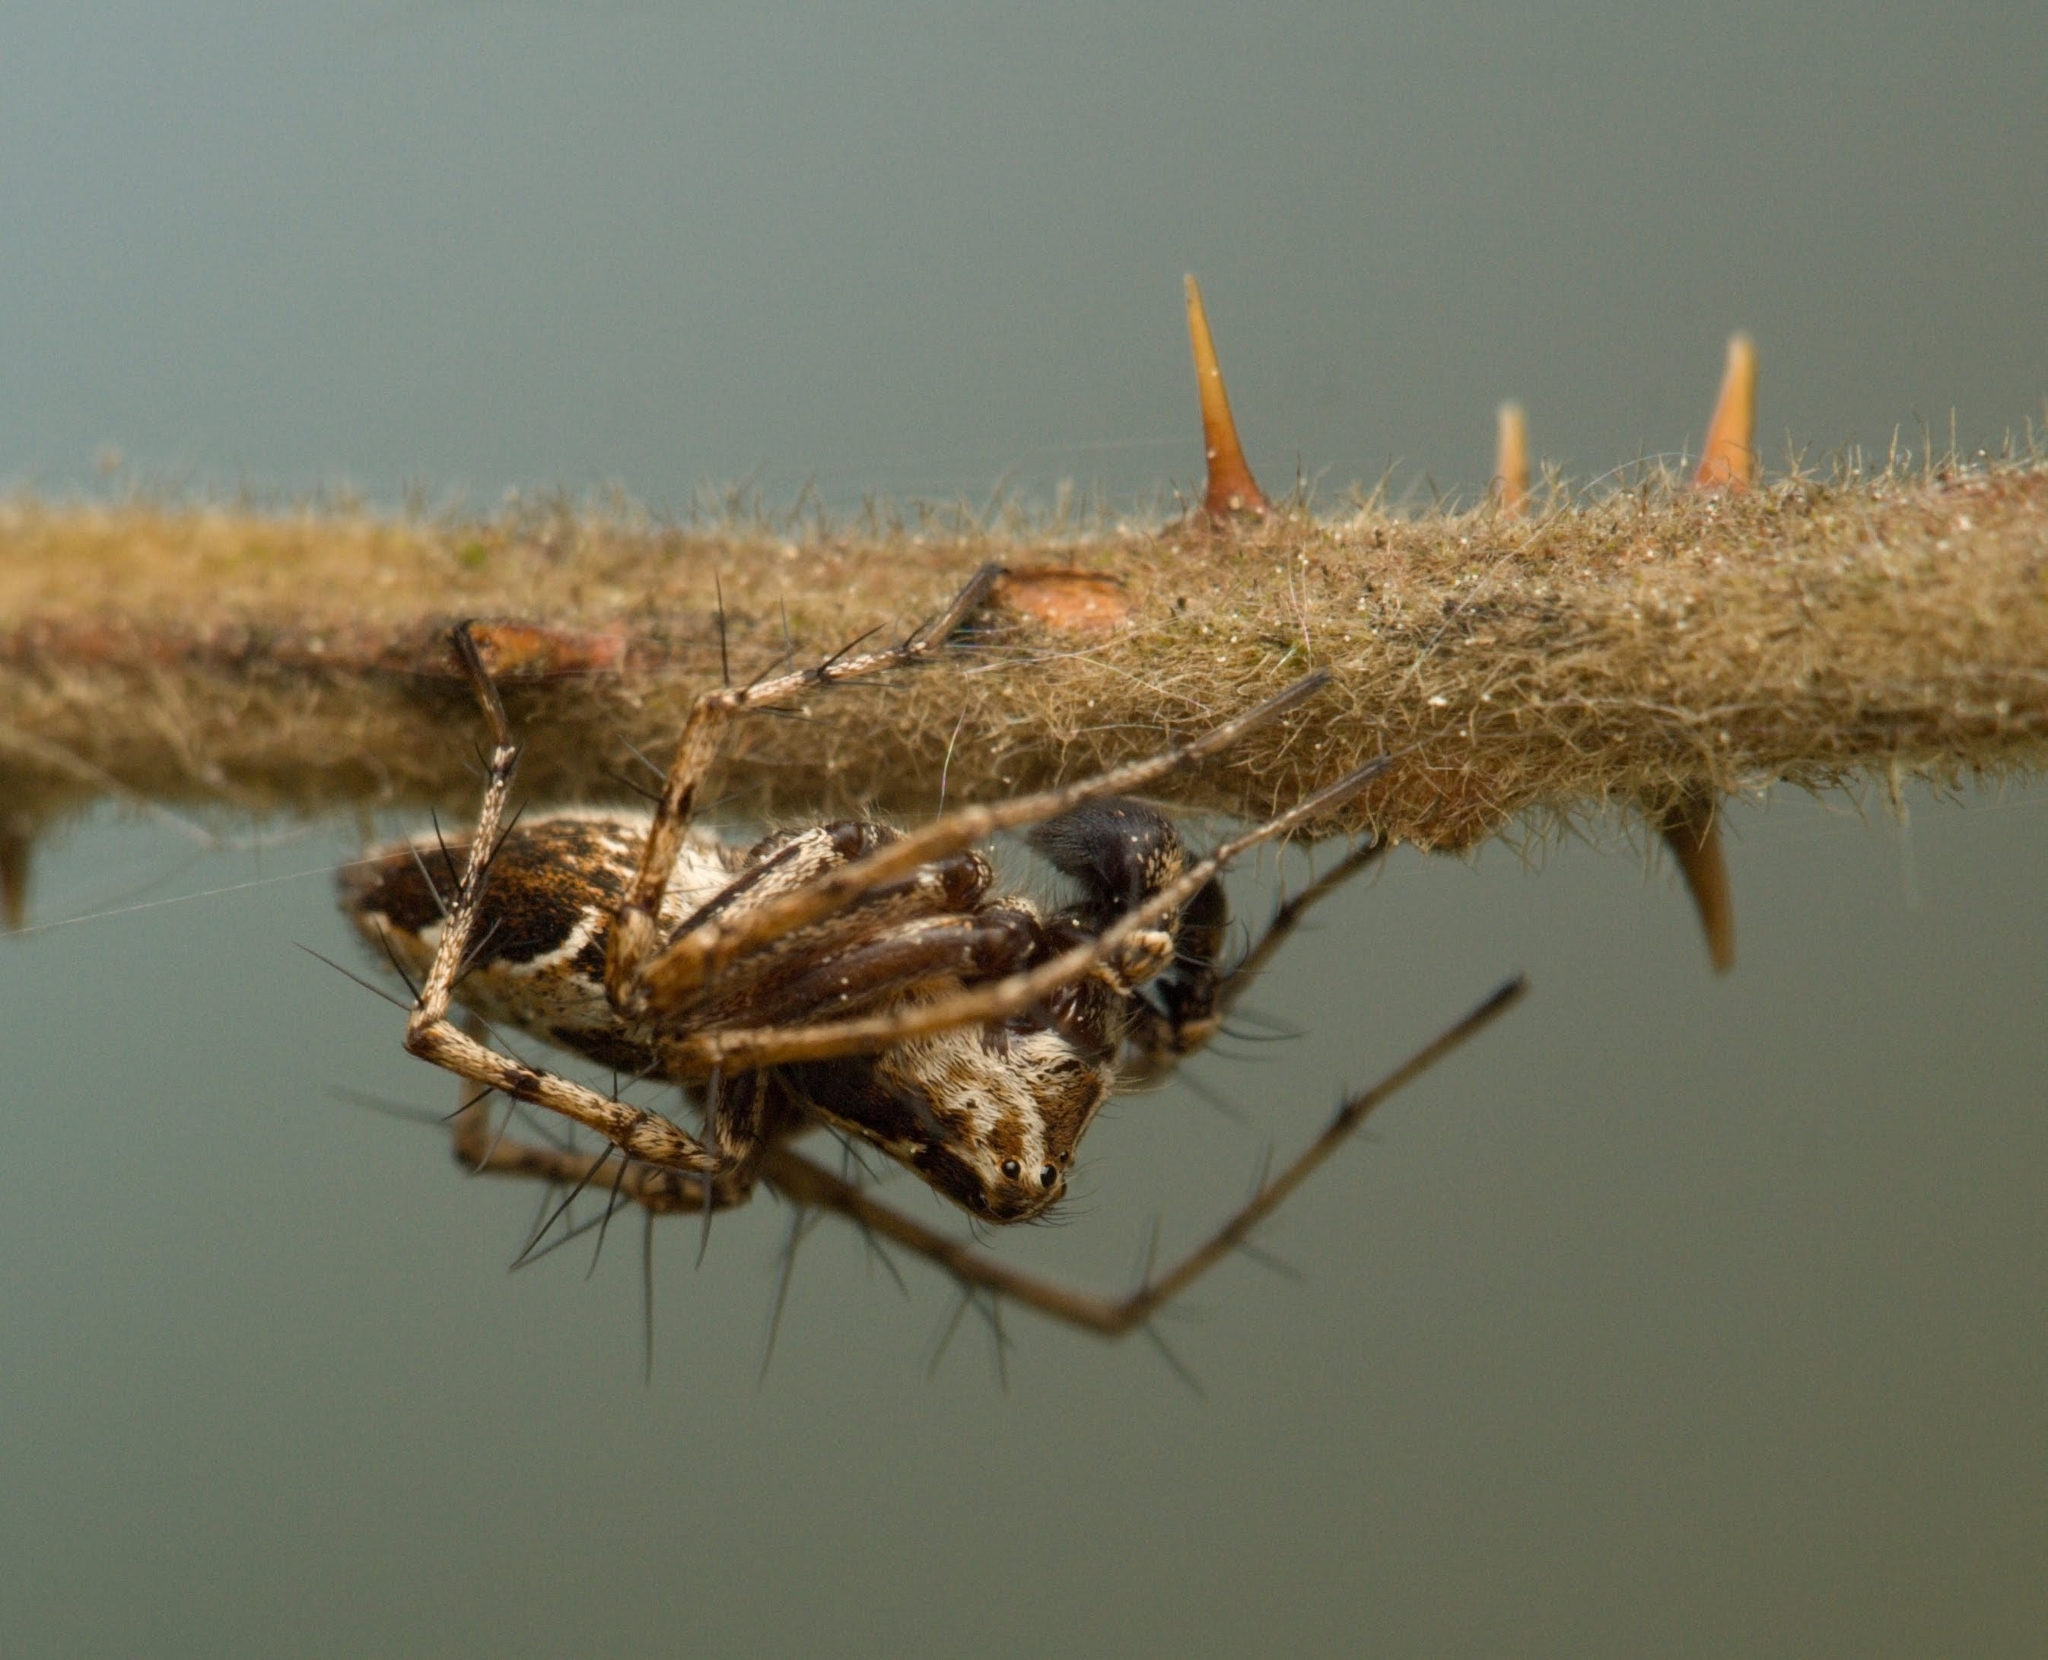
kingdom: Animalia
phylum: Arthropoda
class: Arachnida
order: Araneae
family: Oxyopidae
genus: Oxyopes
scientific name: Oxyopes ramosus
